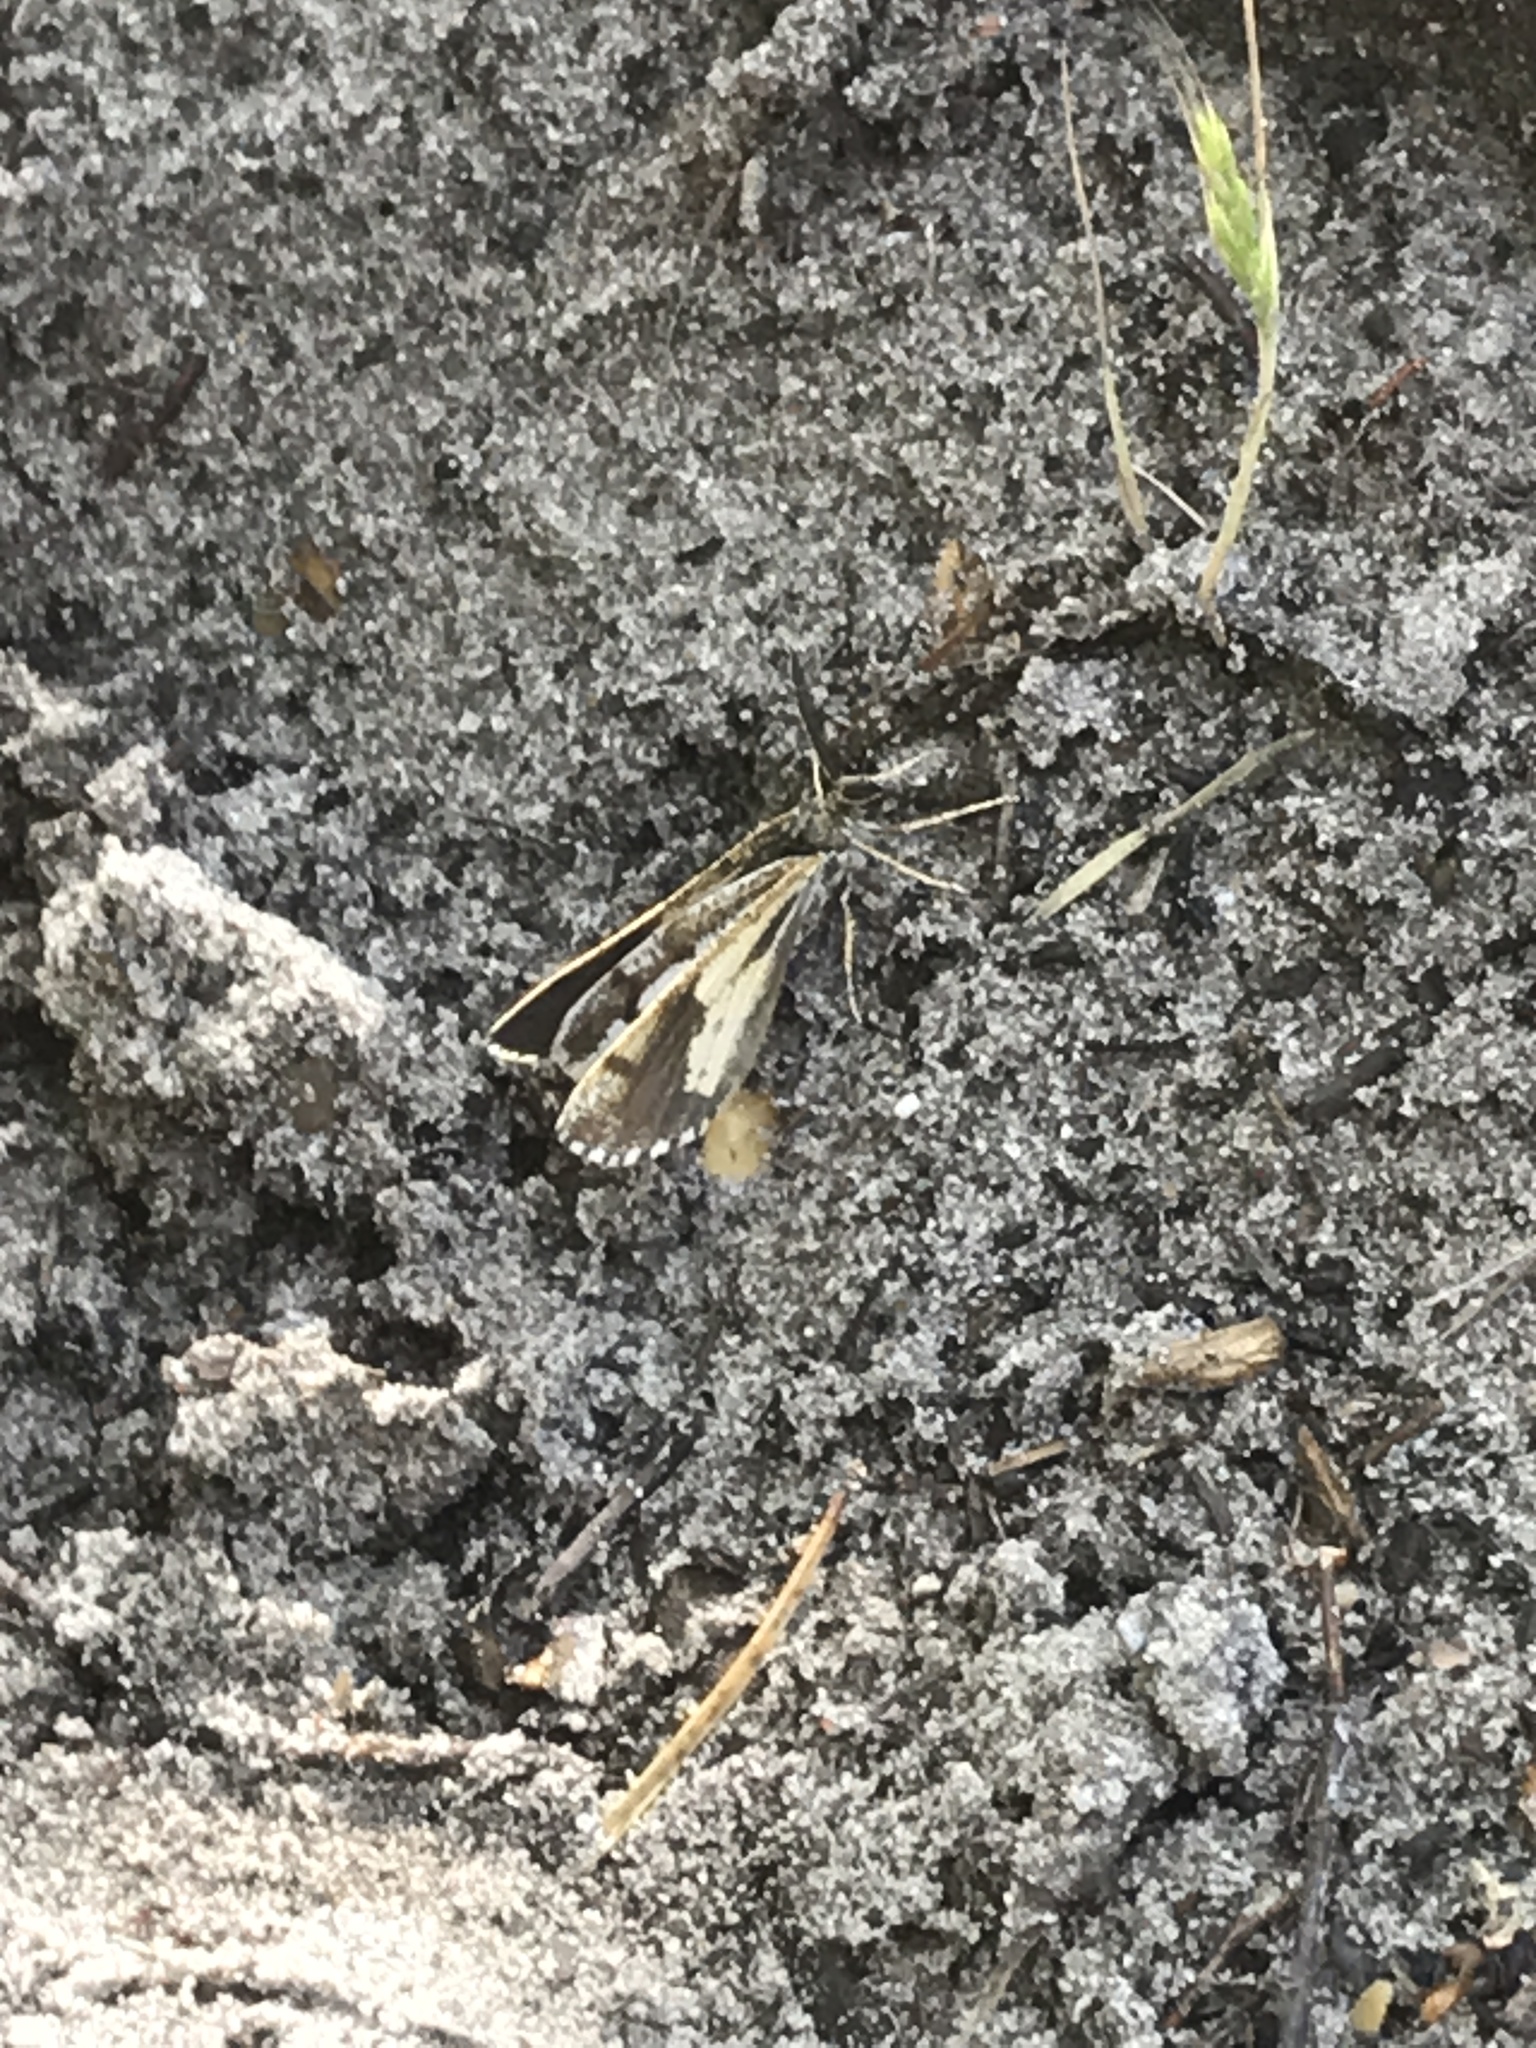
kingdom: Animalia
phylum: Arthropoda
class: Insecta
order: Lepidoptera
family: Geometridae
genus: Bupalus
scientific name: Bupalus piniaria
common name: Bordered white
